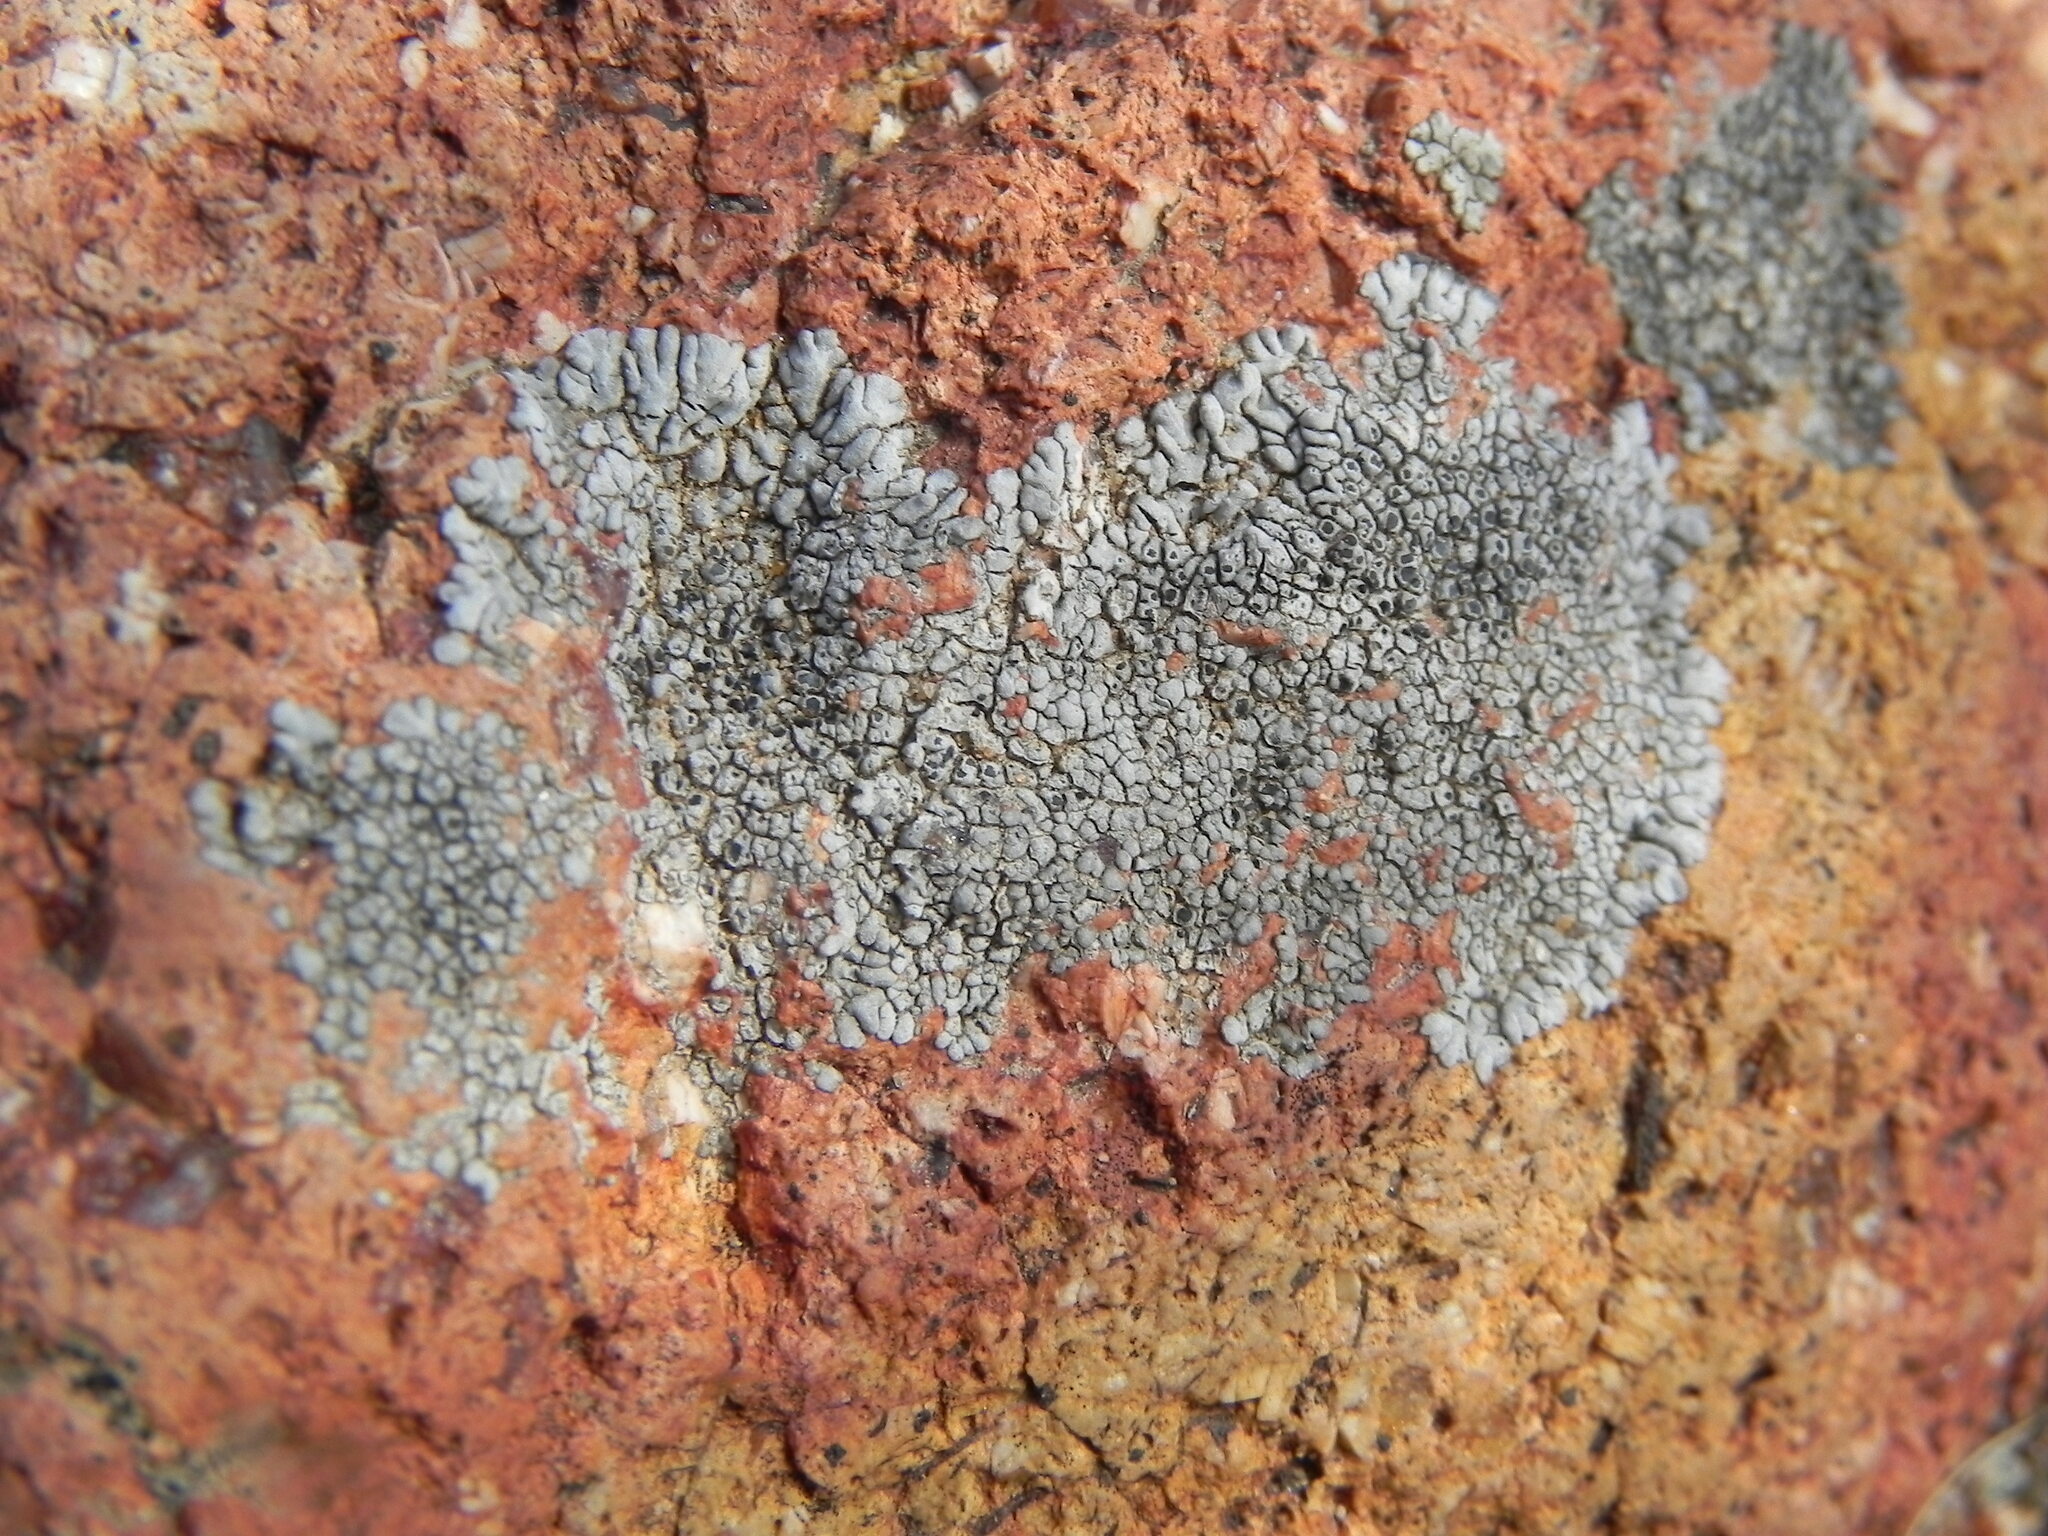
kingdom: Fungi
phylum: Ascomycota
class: Lecanoromycetes
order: Caliciales
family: Caliciaceae
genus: Dimelaena
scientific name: Dimelaena radiata
